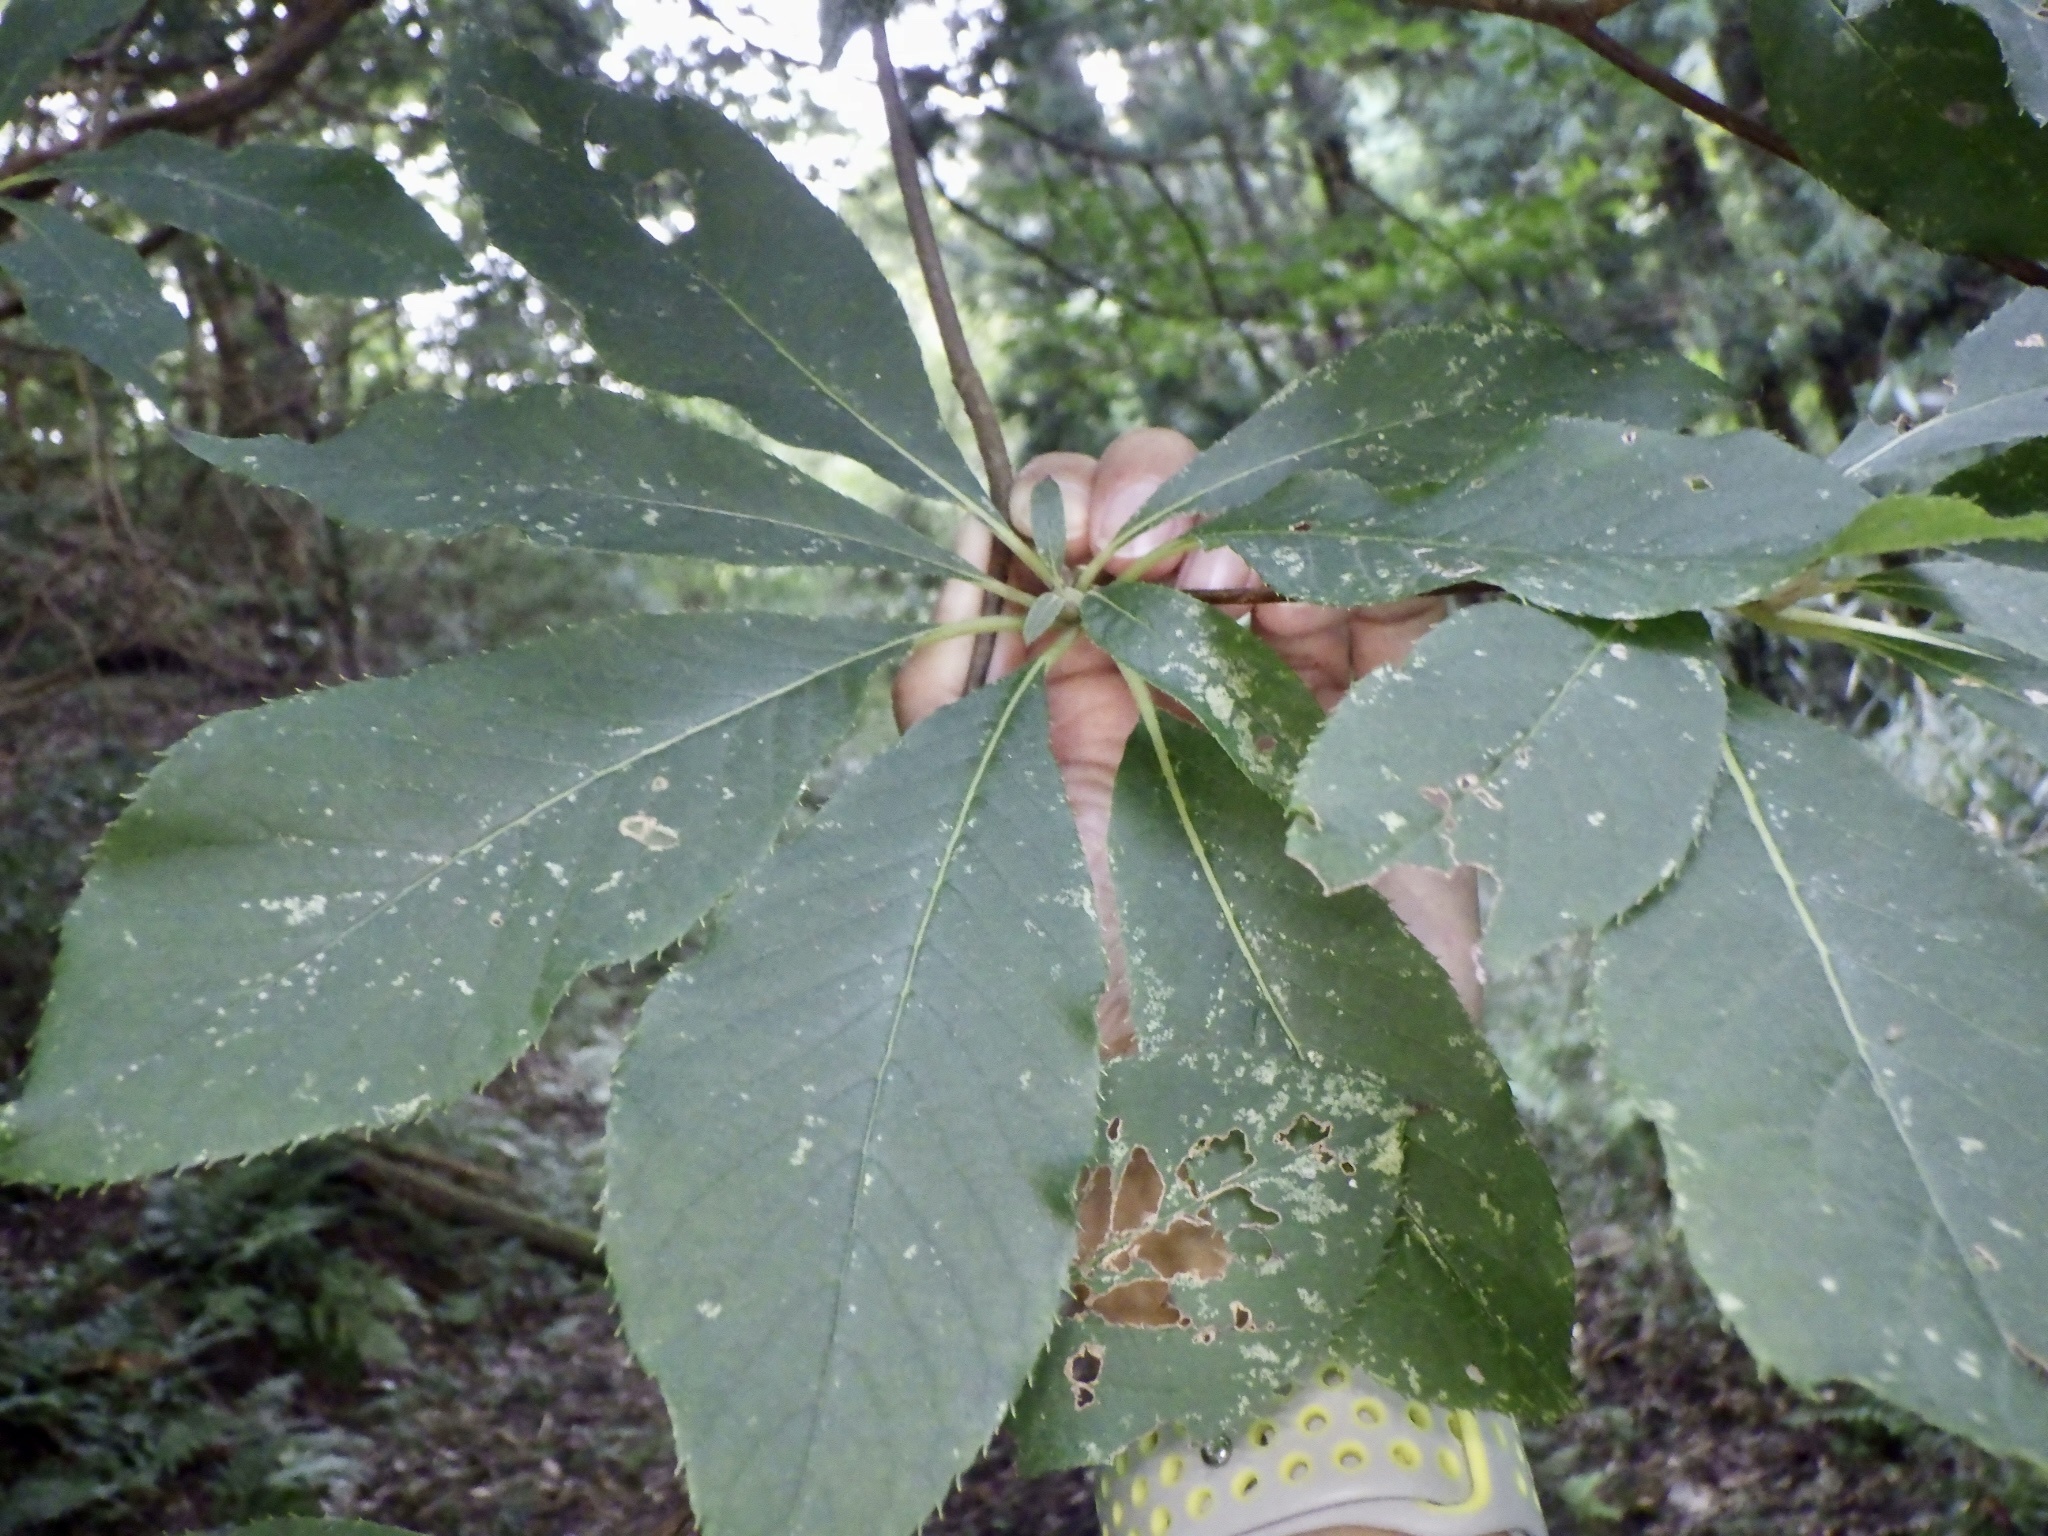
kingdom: Plantae
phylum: Tracheophyta
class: Magnoliopsida
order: Ericales
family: Clethraceae
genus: Clethra
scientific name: Clethra barbinervis
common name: Japanese clethra
